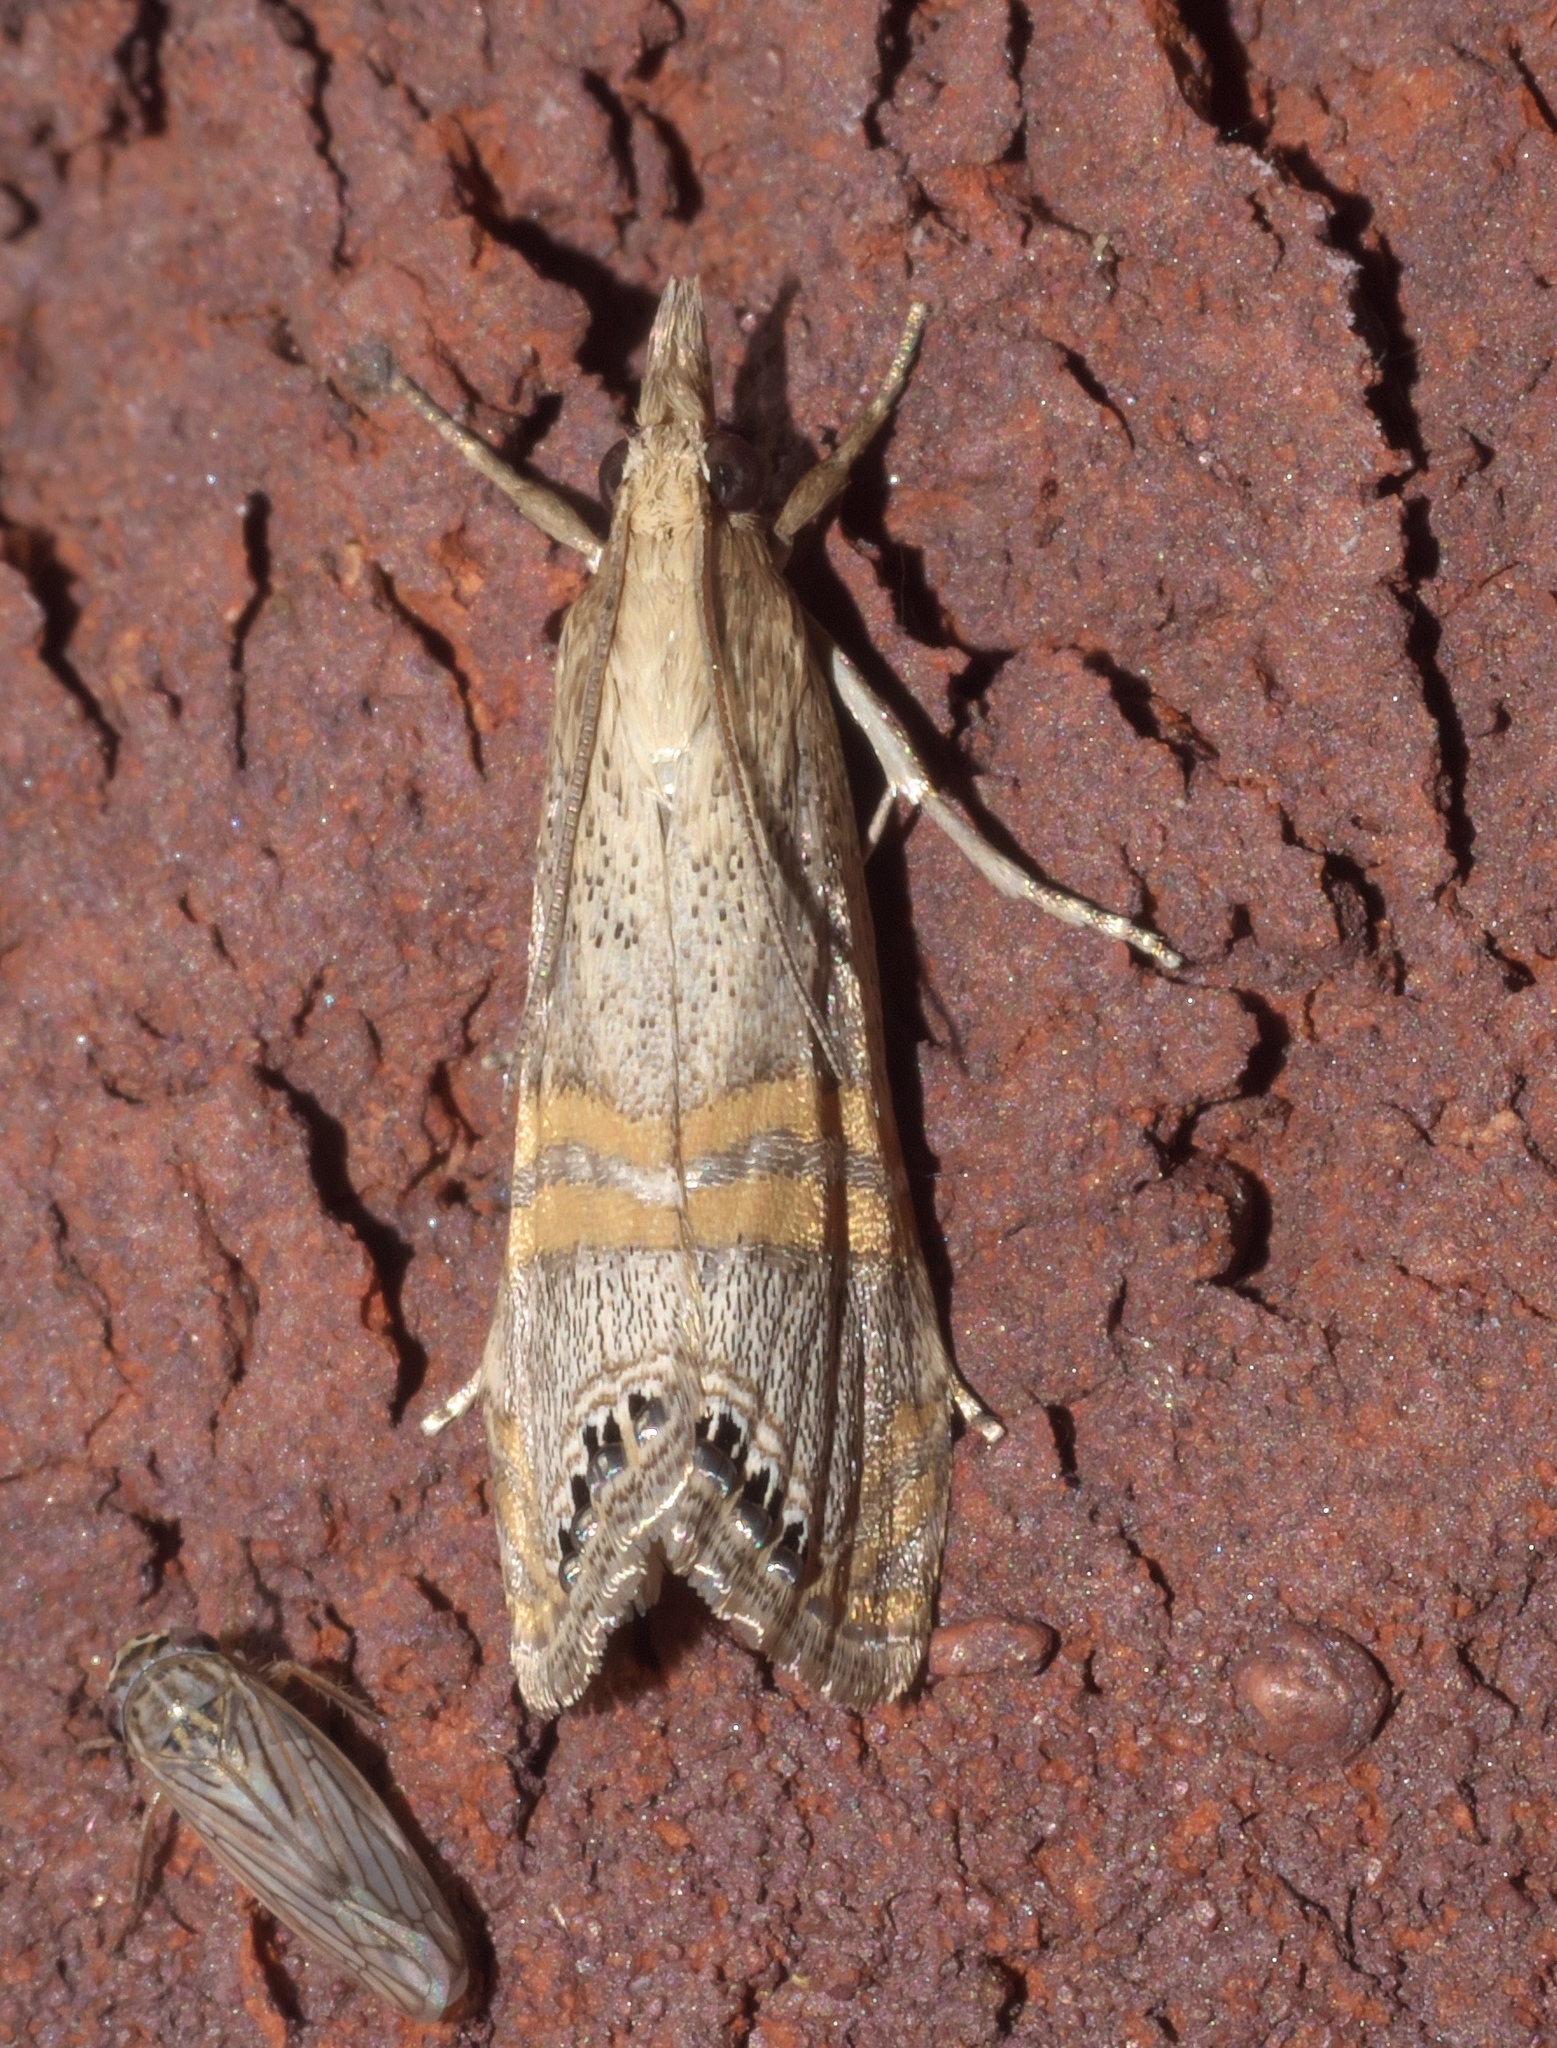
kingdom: Animalia
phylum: Arthropoda
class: Insecta
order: Lepidoptera
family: Crambidae
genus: Euchromius
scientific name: Euchromius ocellea
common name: Necklace veneer moth
